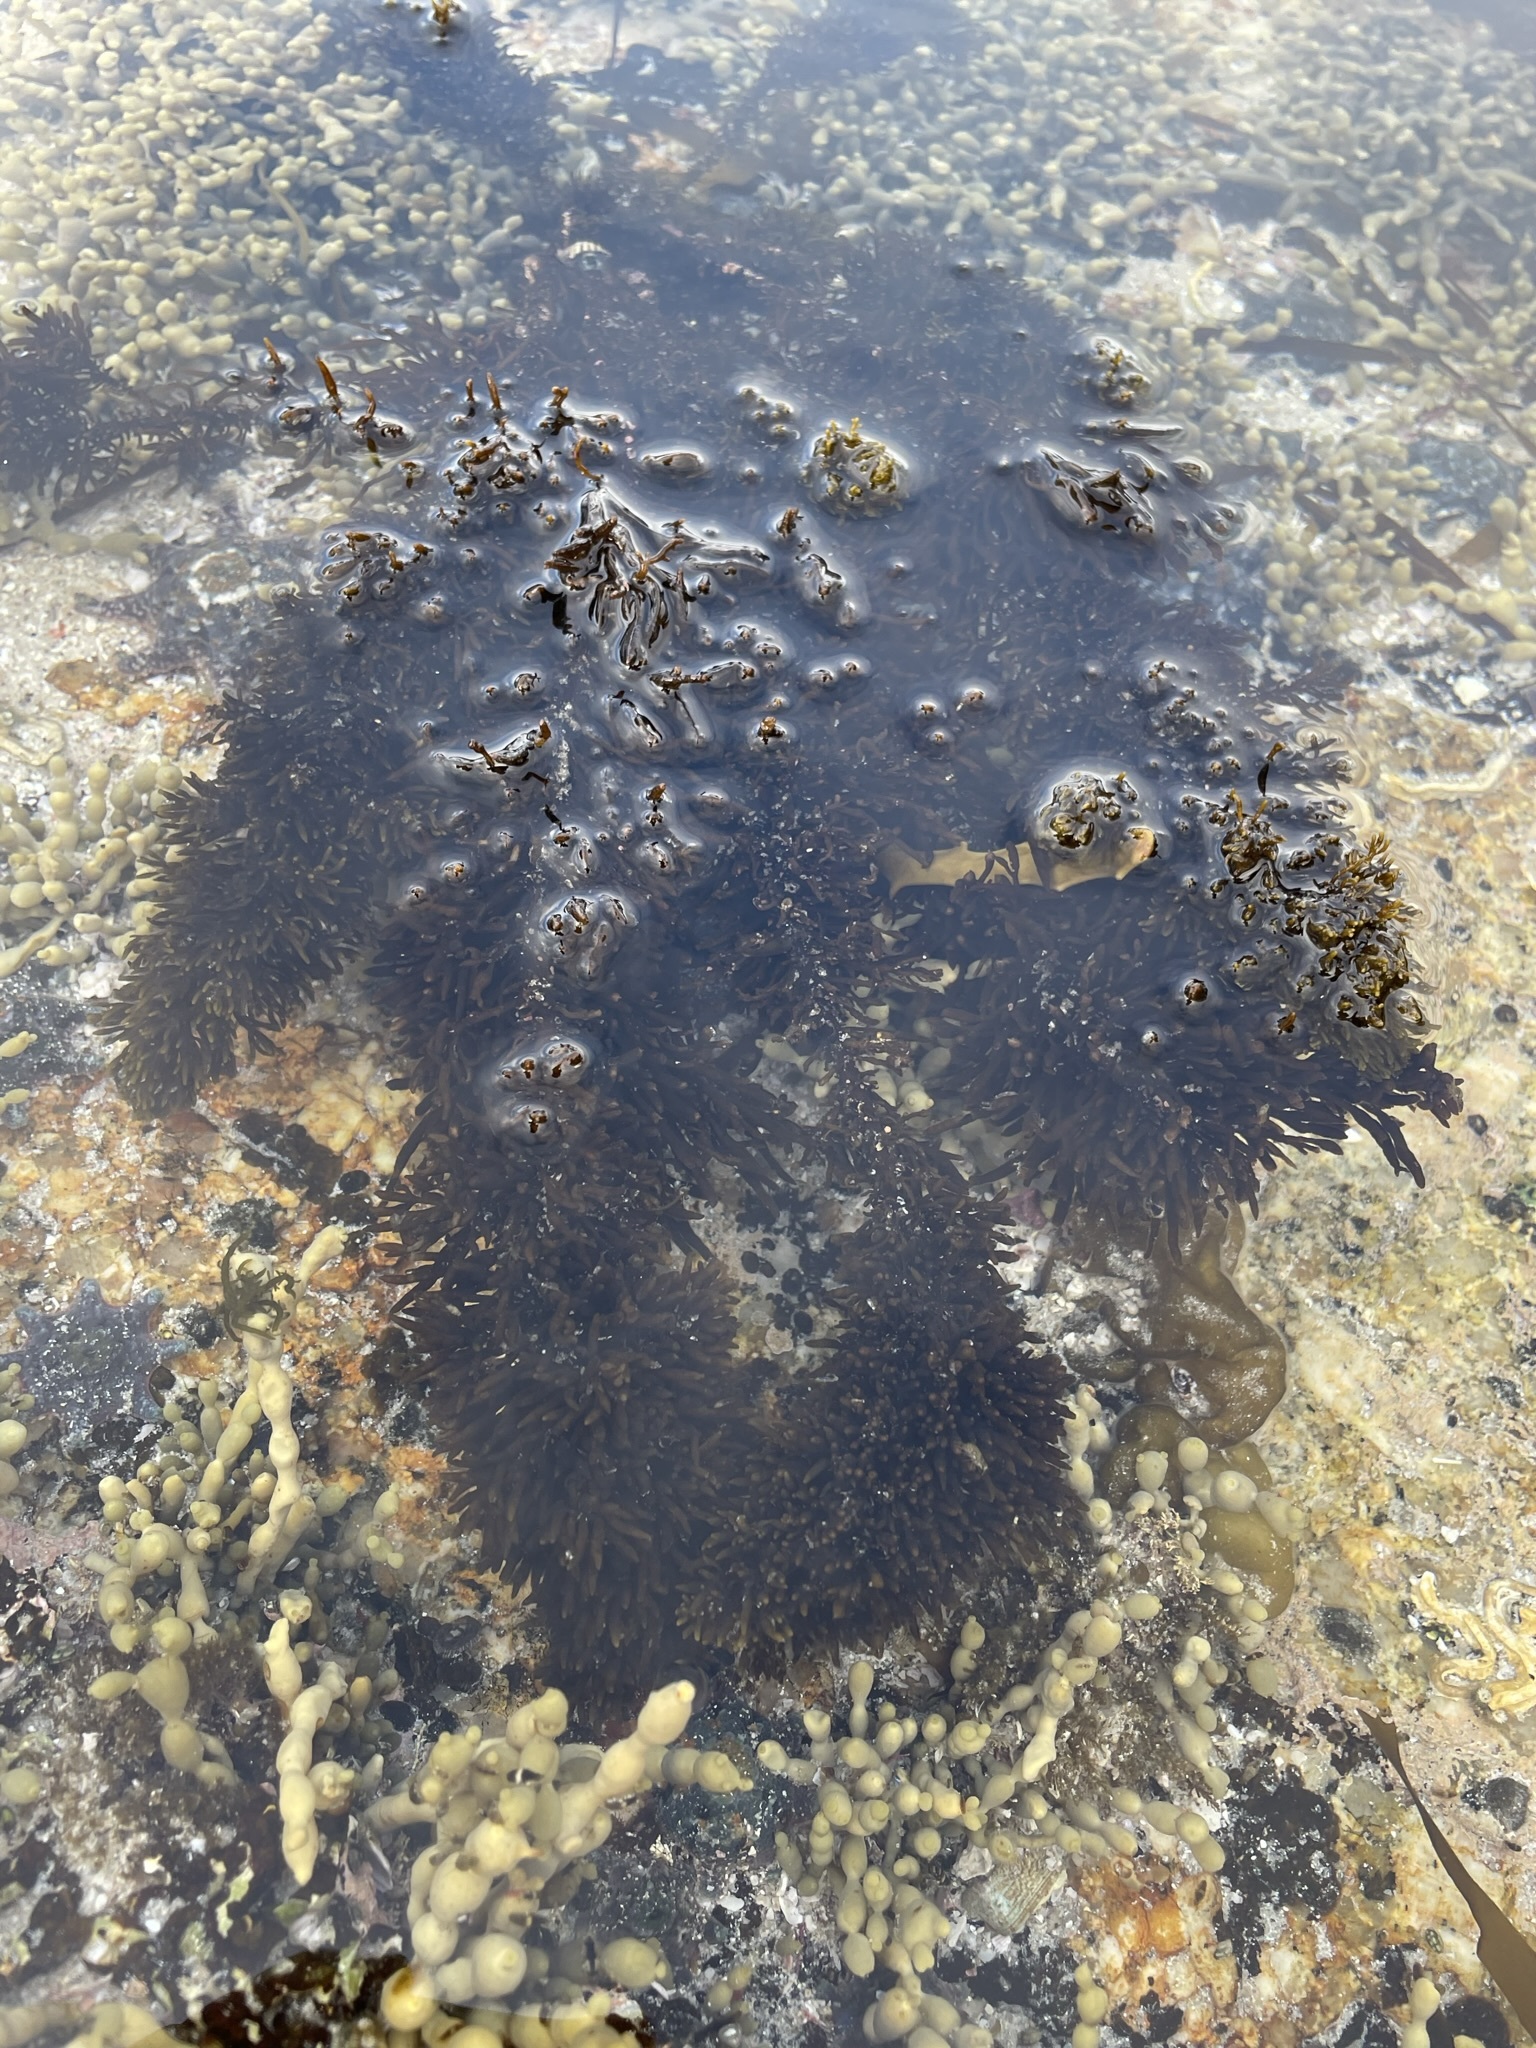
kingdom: Chromista
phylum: Ochrophyta
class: Phaeophyceae
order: Fucales
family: Sargassaceae
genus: Cystophora
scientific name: Cystophora torulosa
